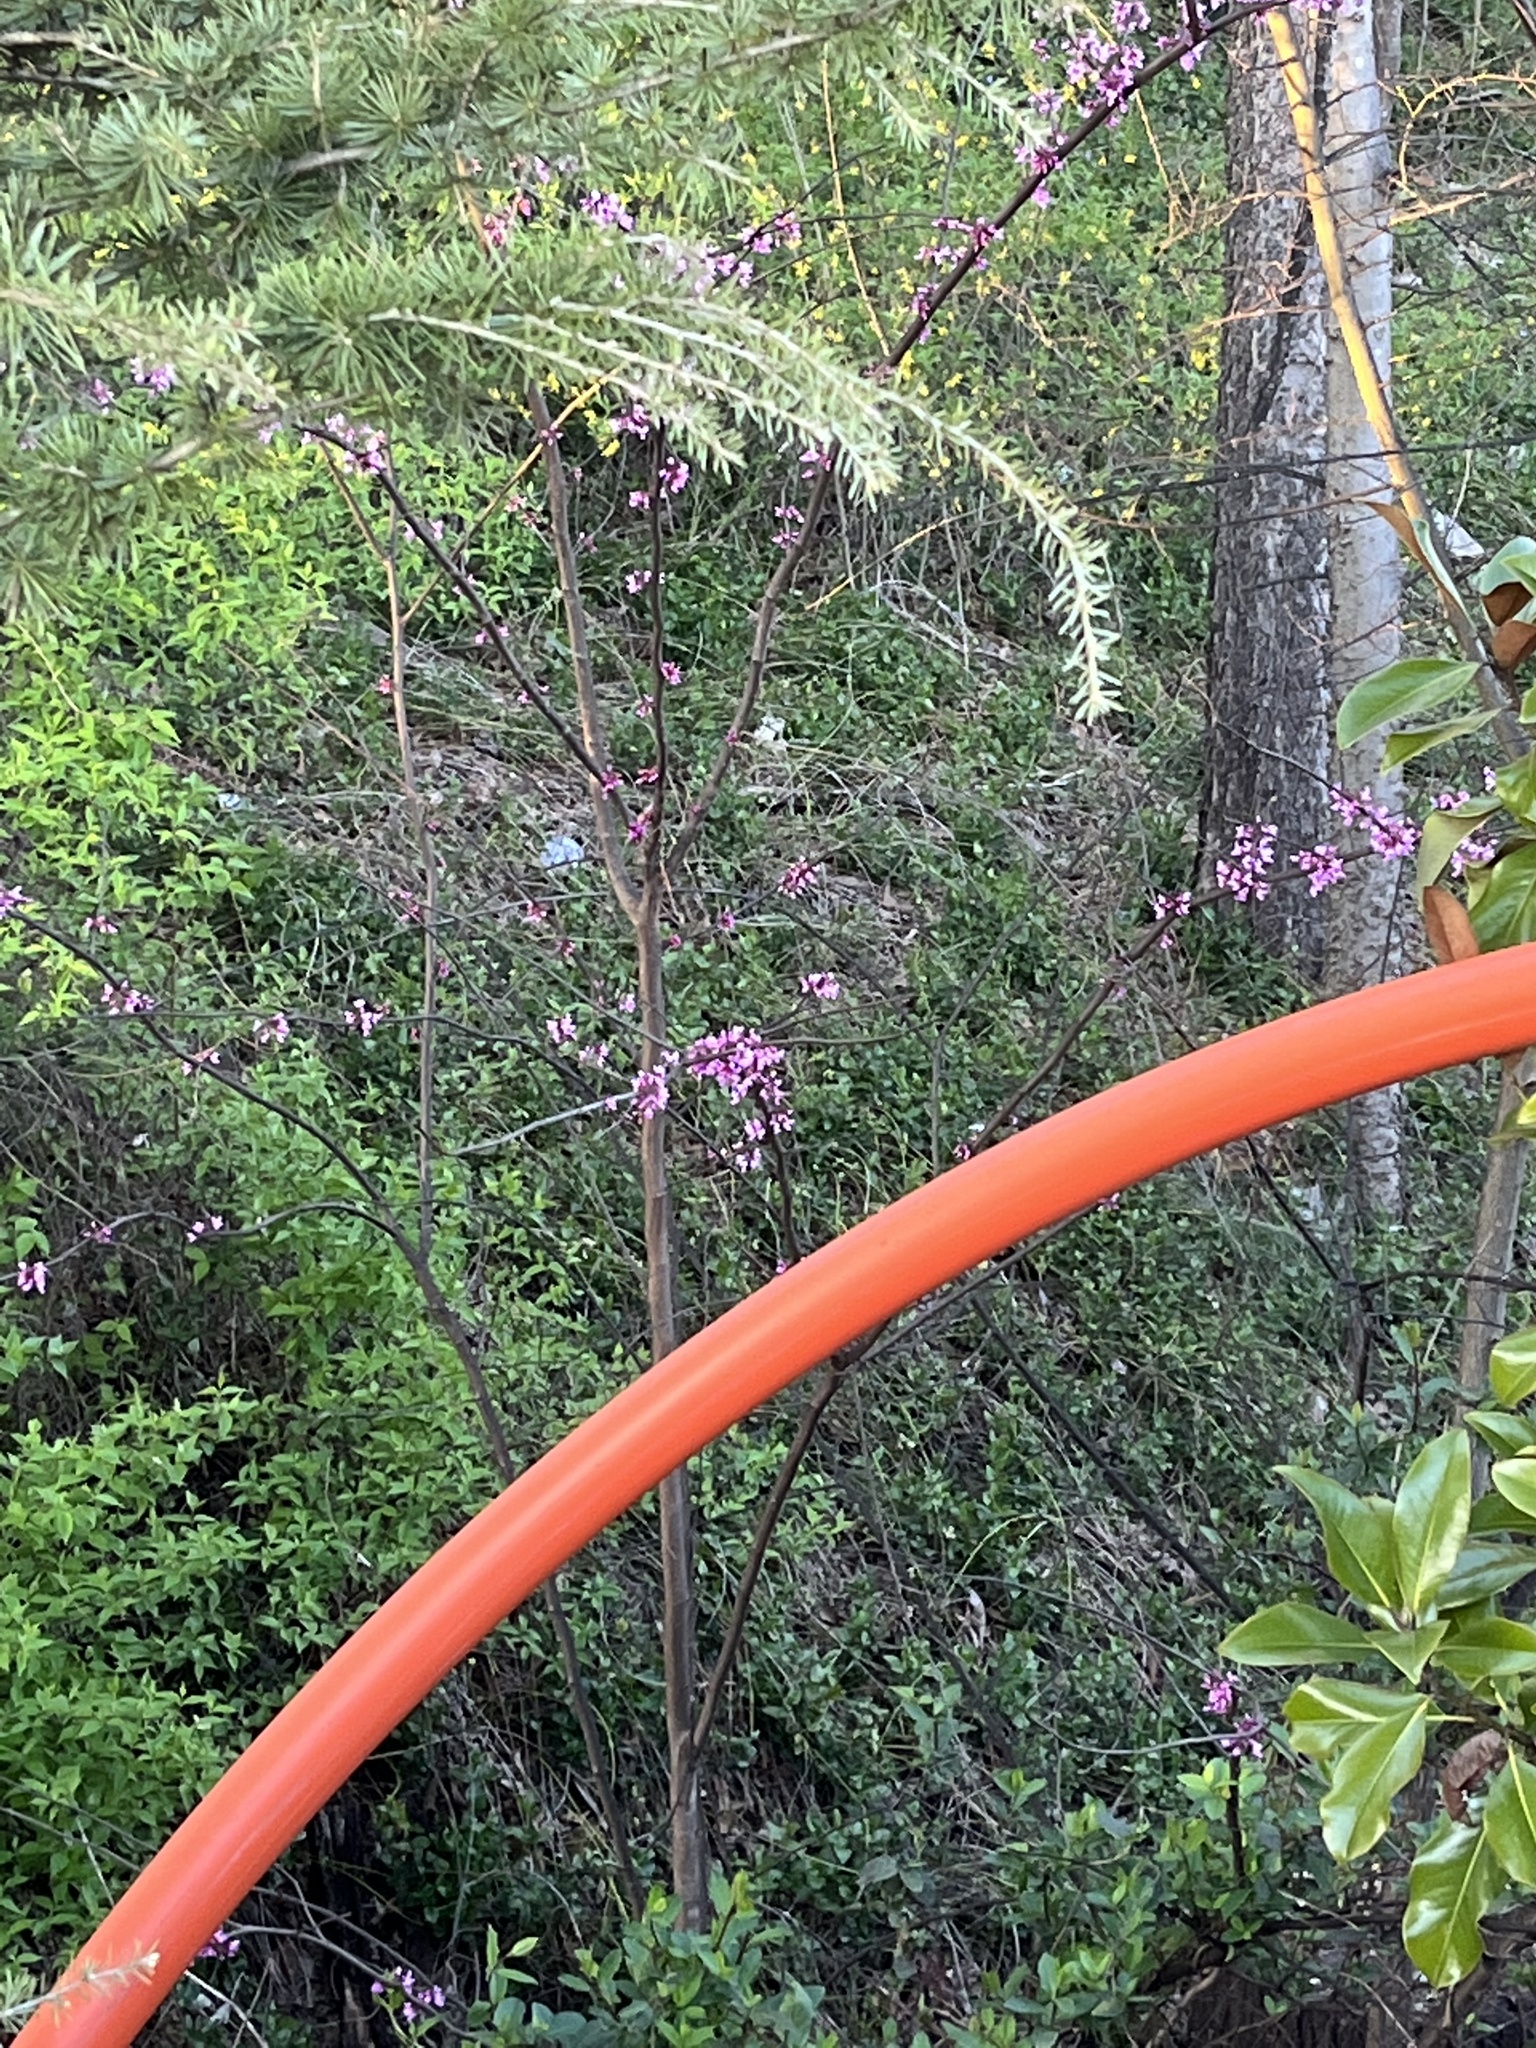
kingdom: Plantae
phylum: Tracheophyta
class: Magnoliopsida
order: Fabales
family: Fabaceae
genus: Cercis
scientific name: Cercis canadensis
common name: Eastern redbud
